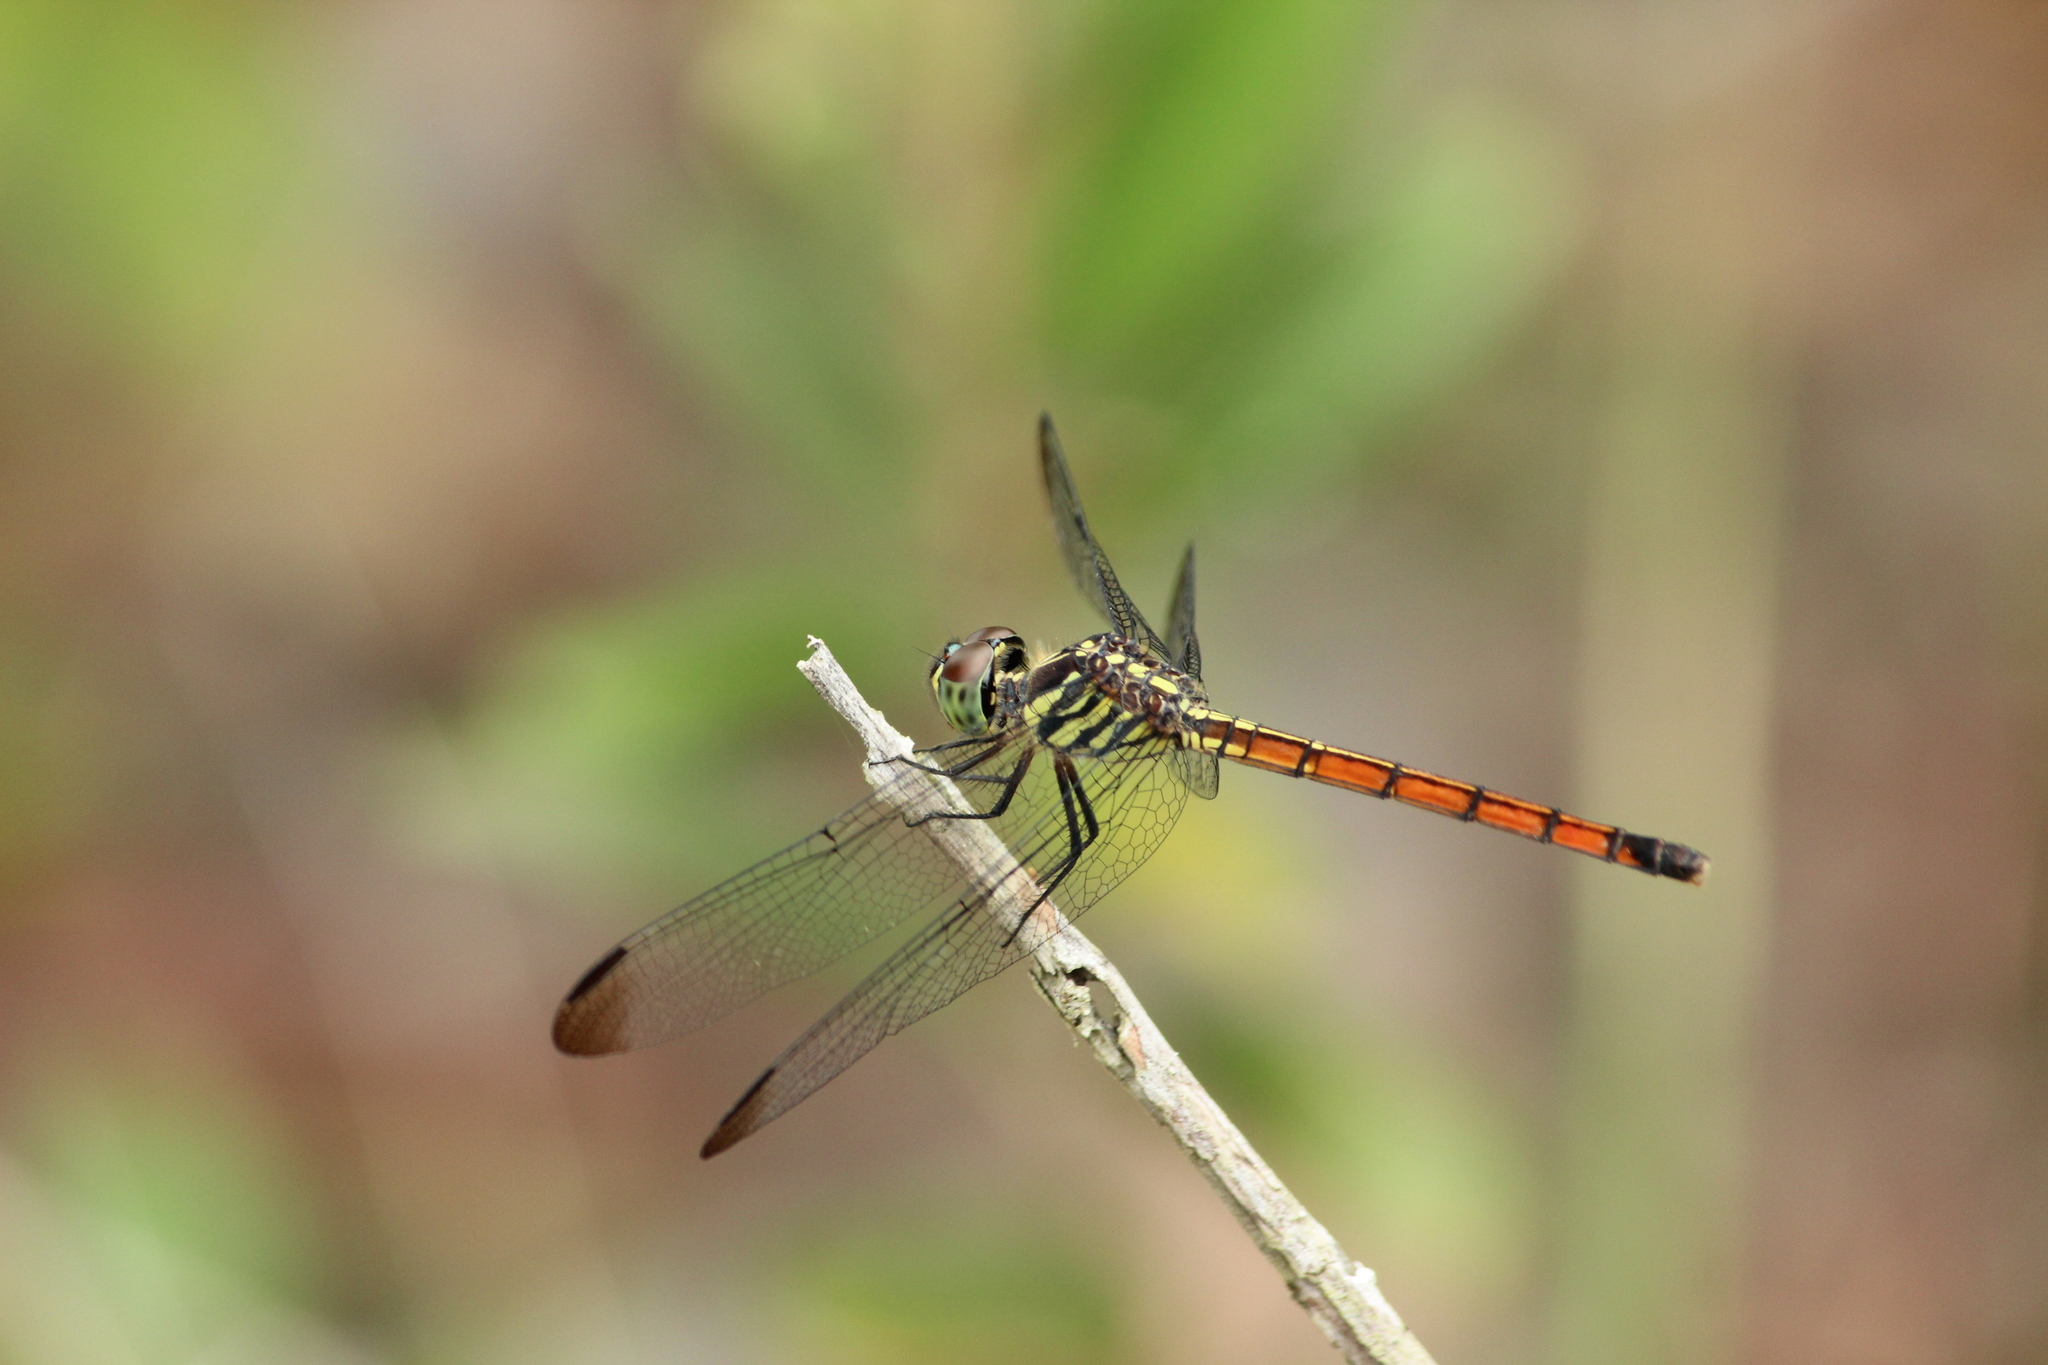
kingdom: Animalia
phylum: Arthropoda
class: Insecta
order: Odonata
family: Libellulidae
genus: Lathrecista
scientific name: Lathrecista asiatica
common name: Scarlet grenadier
